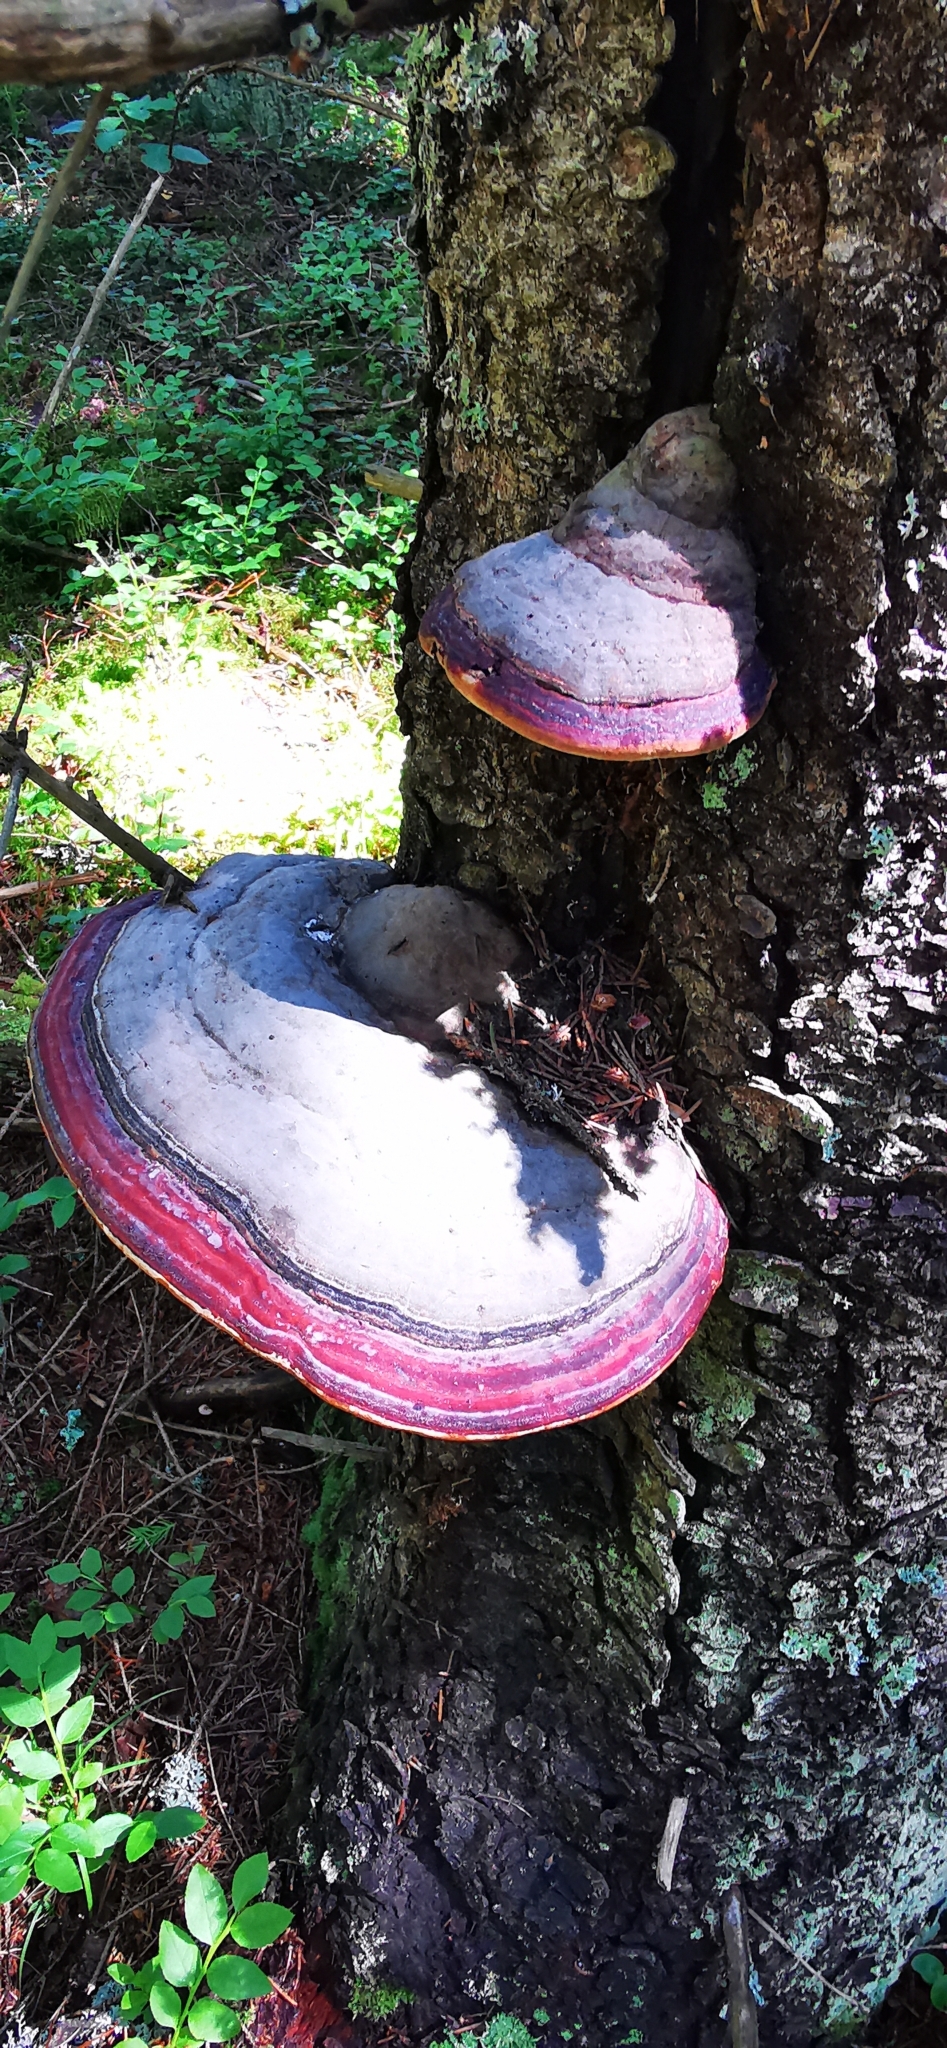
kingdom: Fungi
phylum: Basidiomycota
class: Agaricomycetes
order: Polyporales
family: Fomitopsidaceae
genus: Fomitopsis
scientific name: Fomitopsis pinicola
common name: Red-belted bracket
